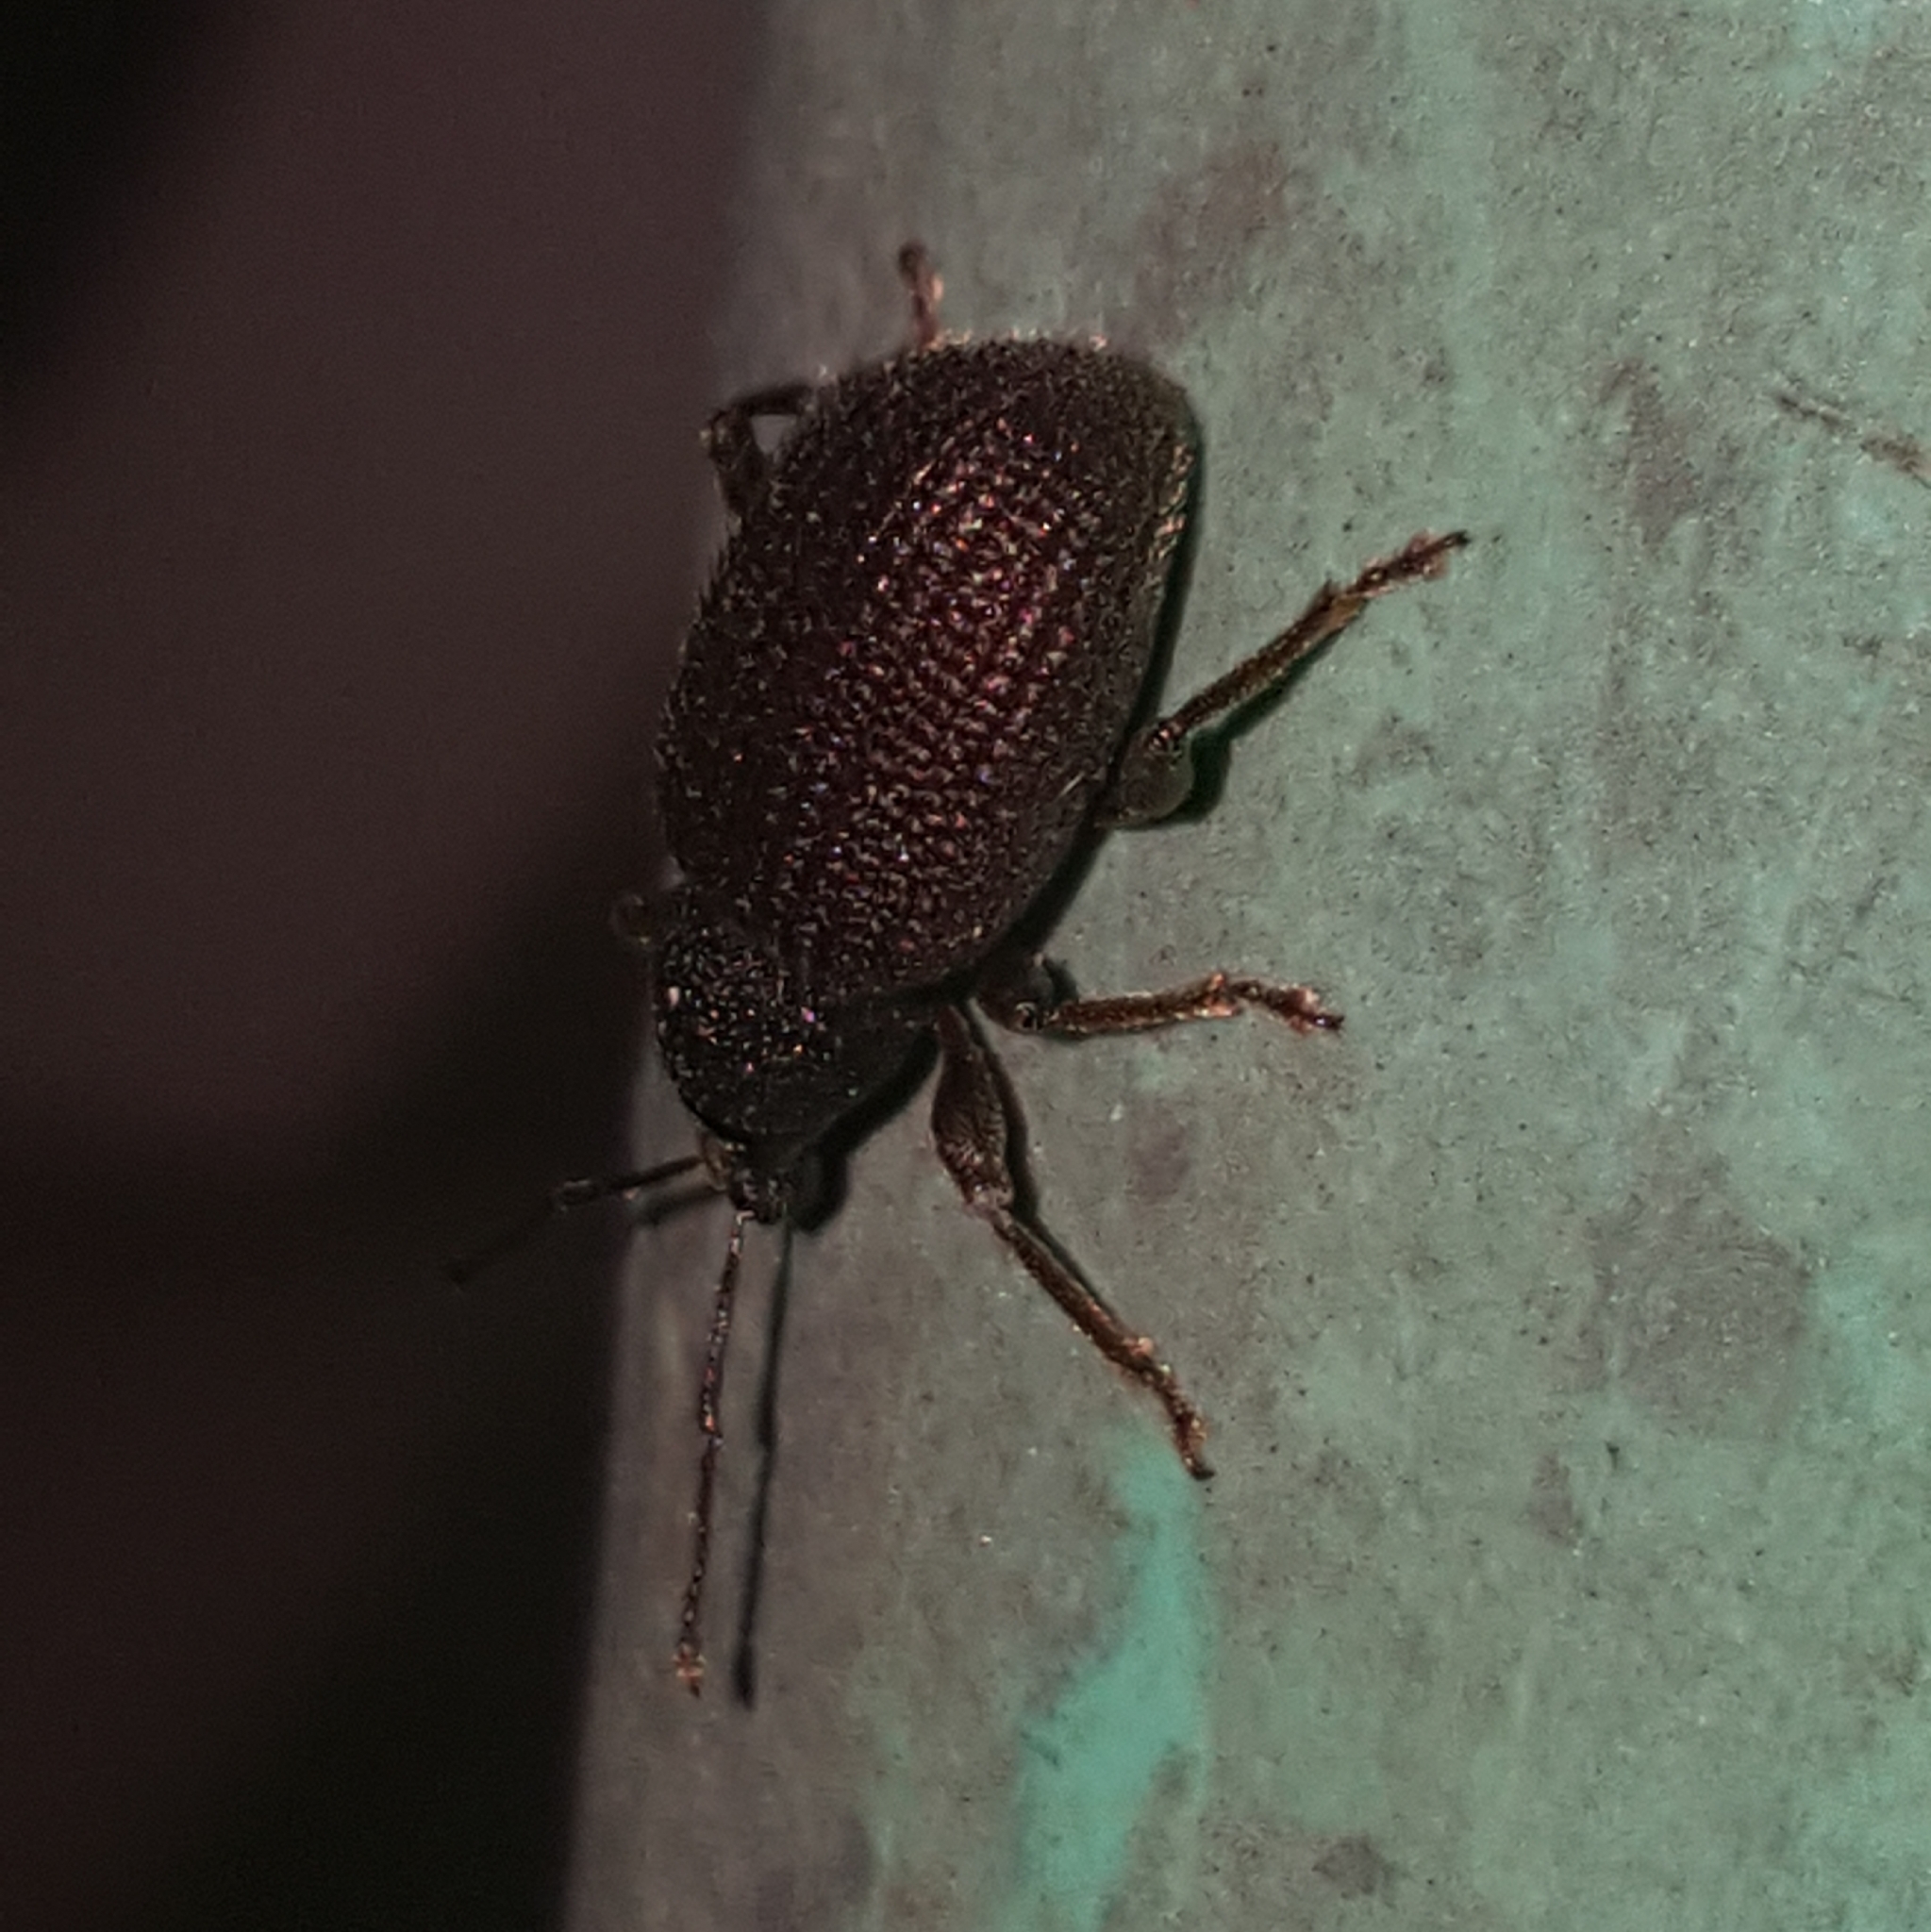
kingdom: Animalia
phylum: Arthropoda
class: Insecta
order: Coleoptera
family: Curculionidae
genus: Otiorhynchus
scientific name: Otiorhynchus rugosostriatus
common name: Weevil
